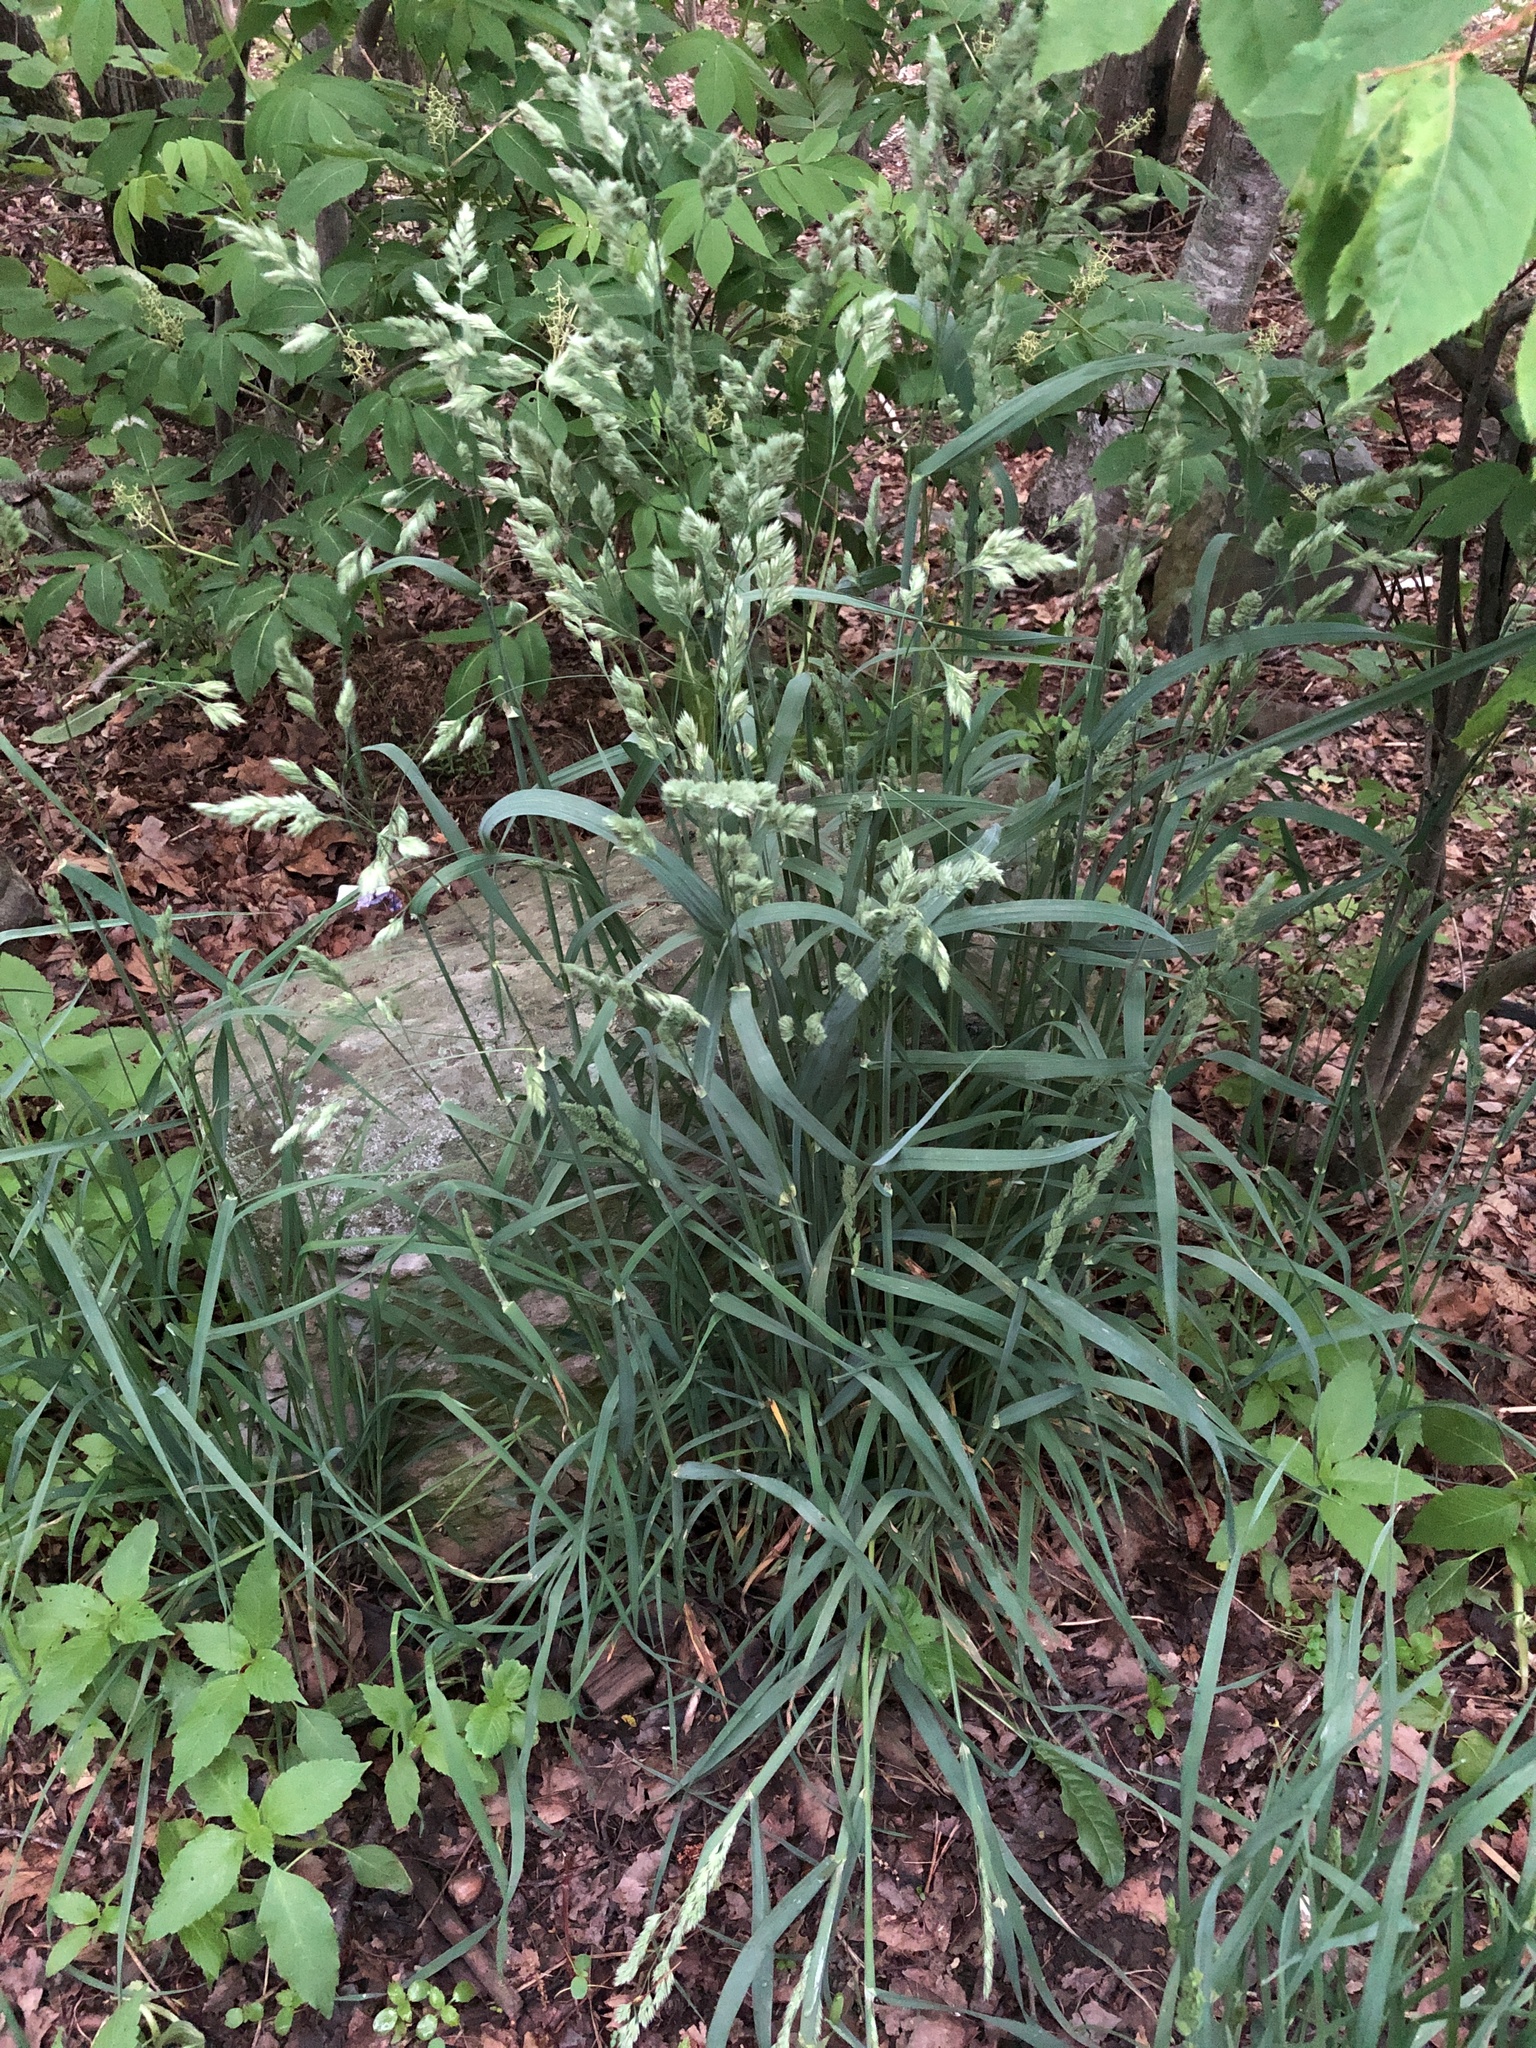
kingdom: Plantae
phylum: Tracheophyta
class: Liliopsida
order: Poales
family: Poaceae
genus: Dactylis
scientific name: Dactylis glomerata
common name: Orchardgrass
